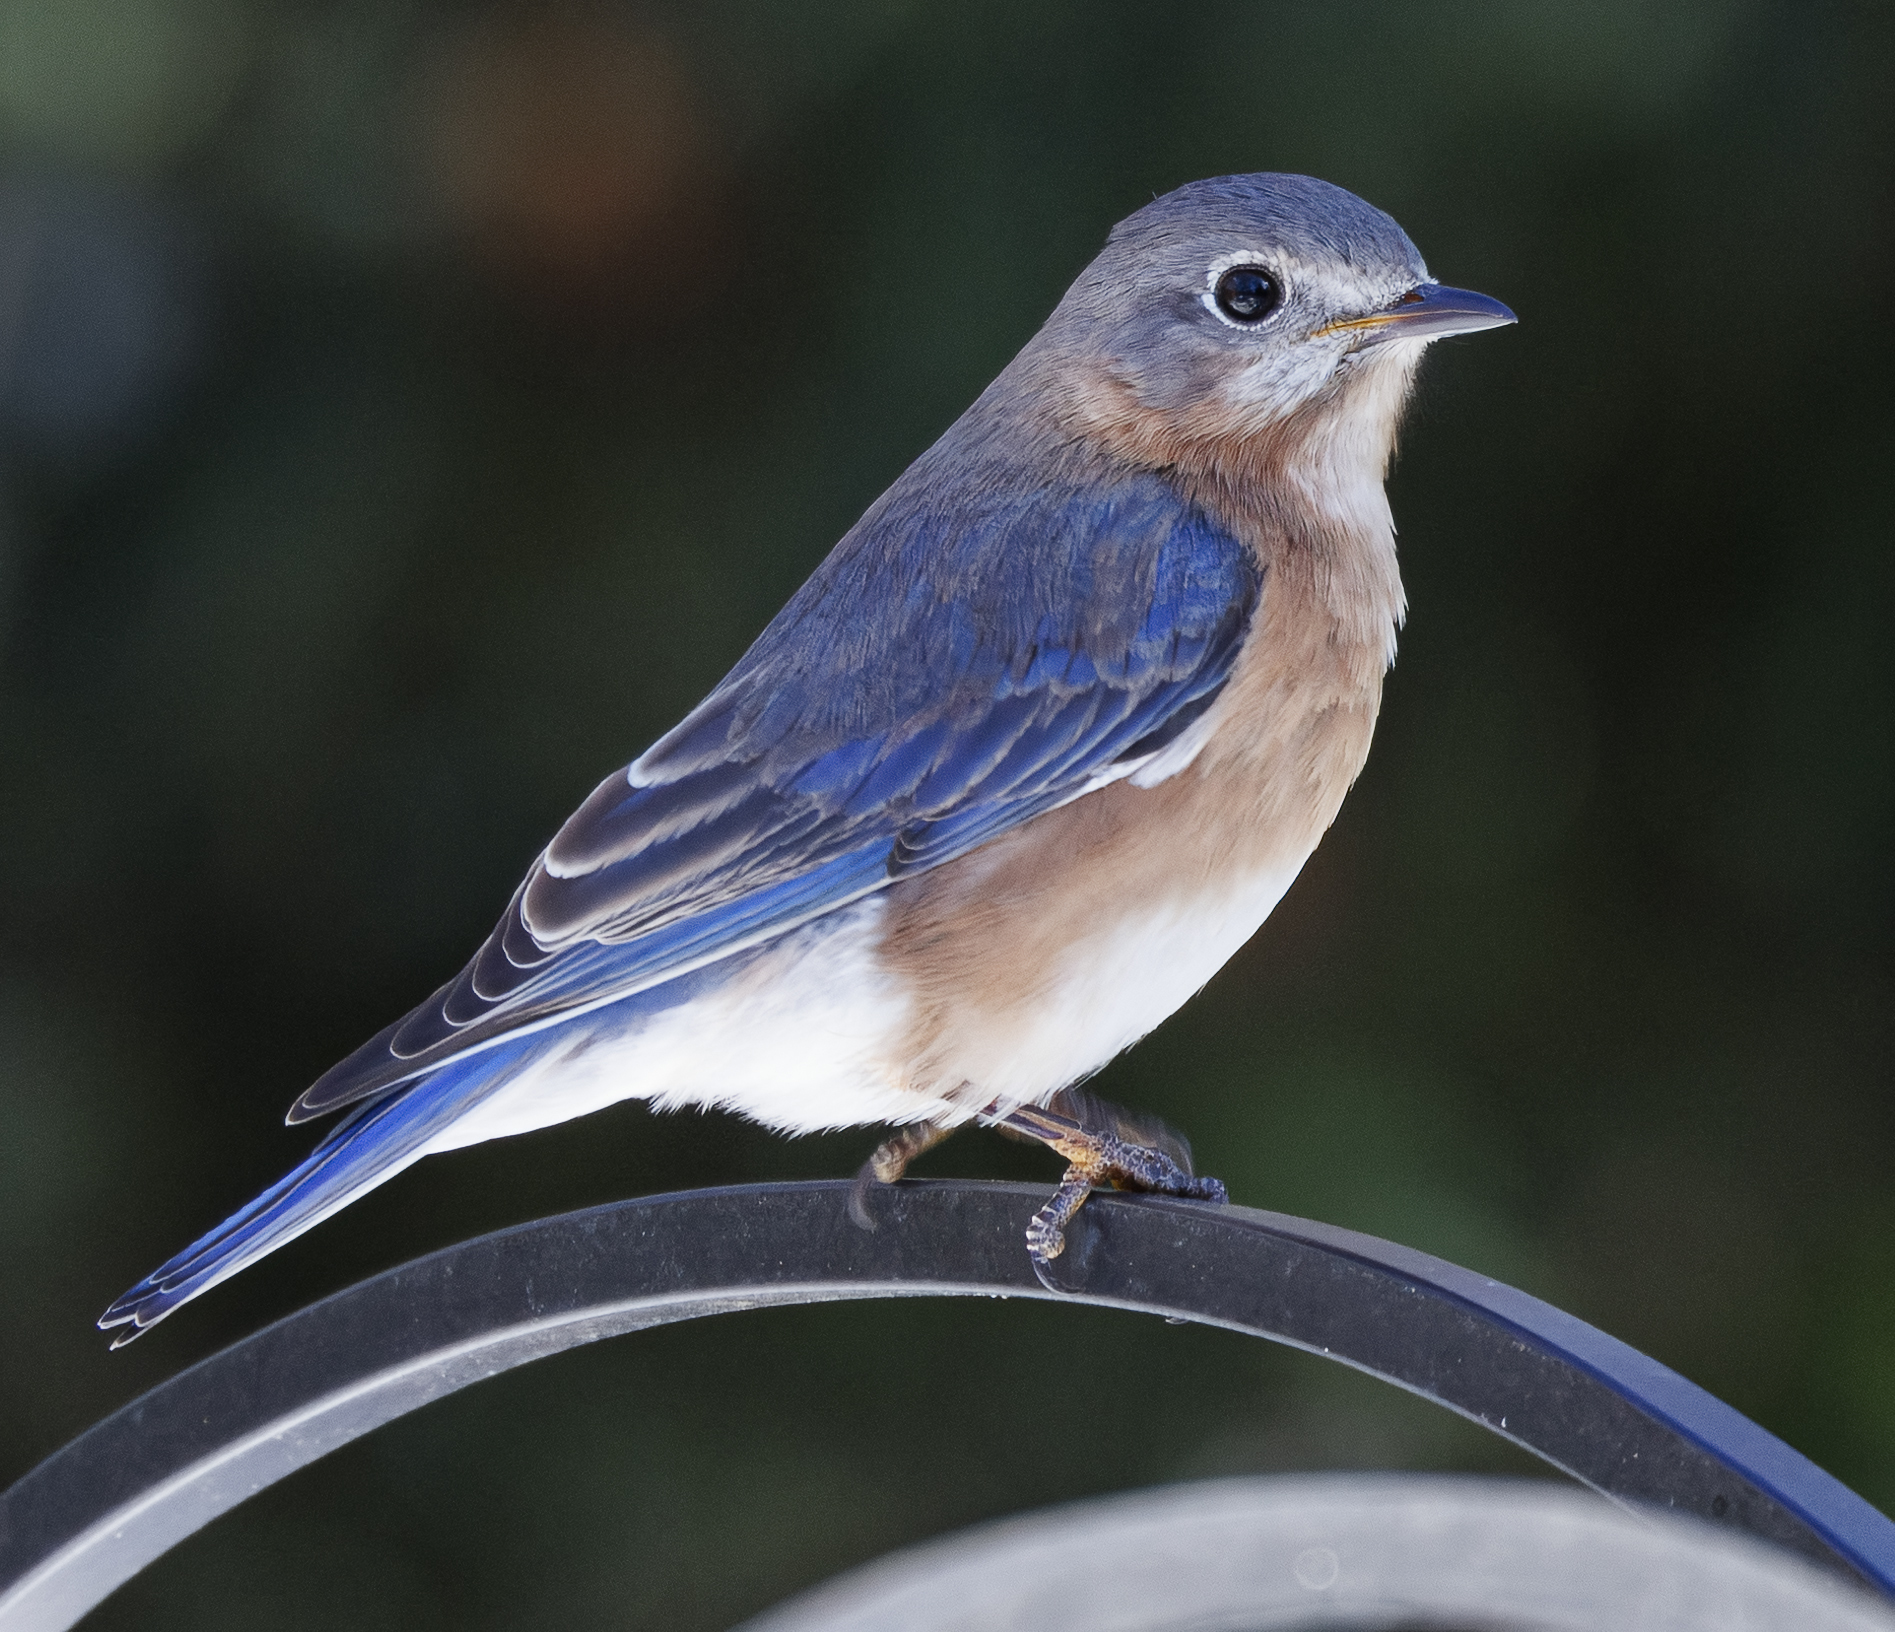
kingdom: Animalia
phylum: Chordata
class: Aves
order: Passeriformes
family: Turdidae
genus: Sialia
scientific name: Sialia sialis
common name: Eastern bluebird
